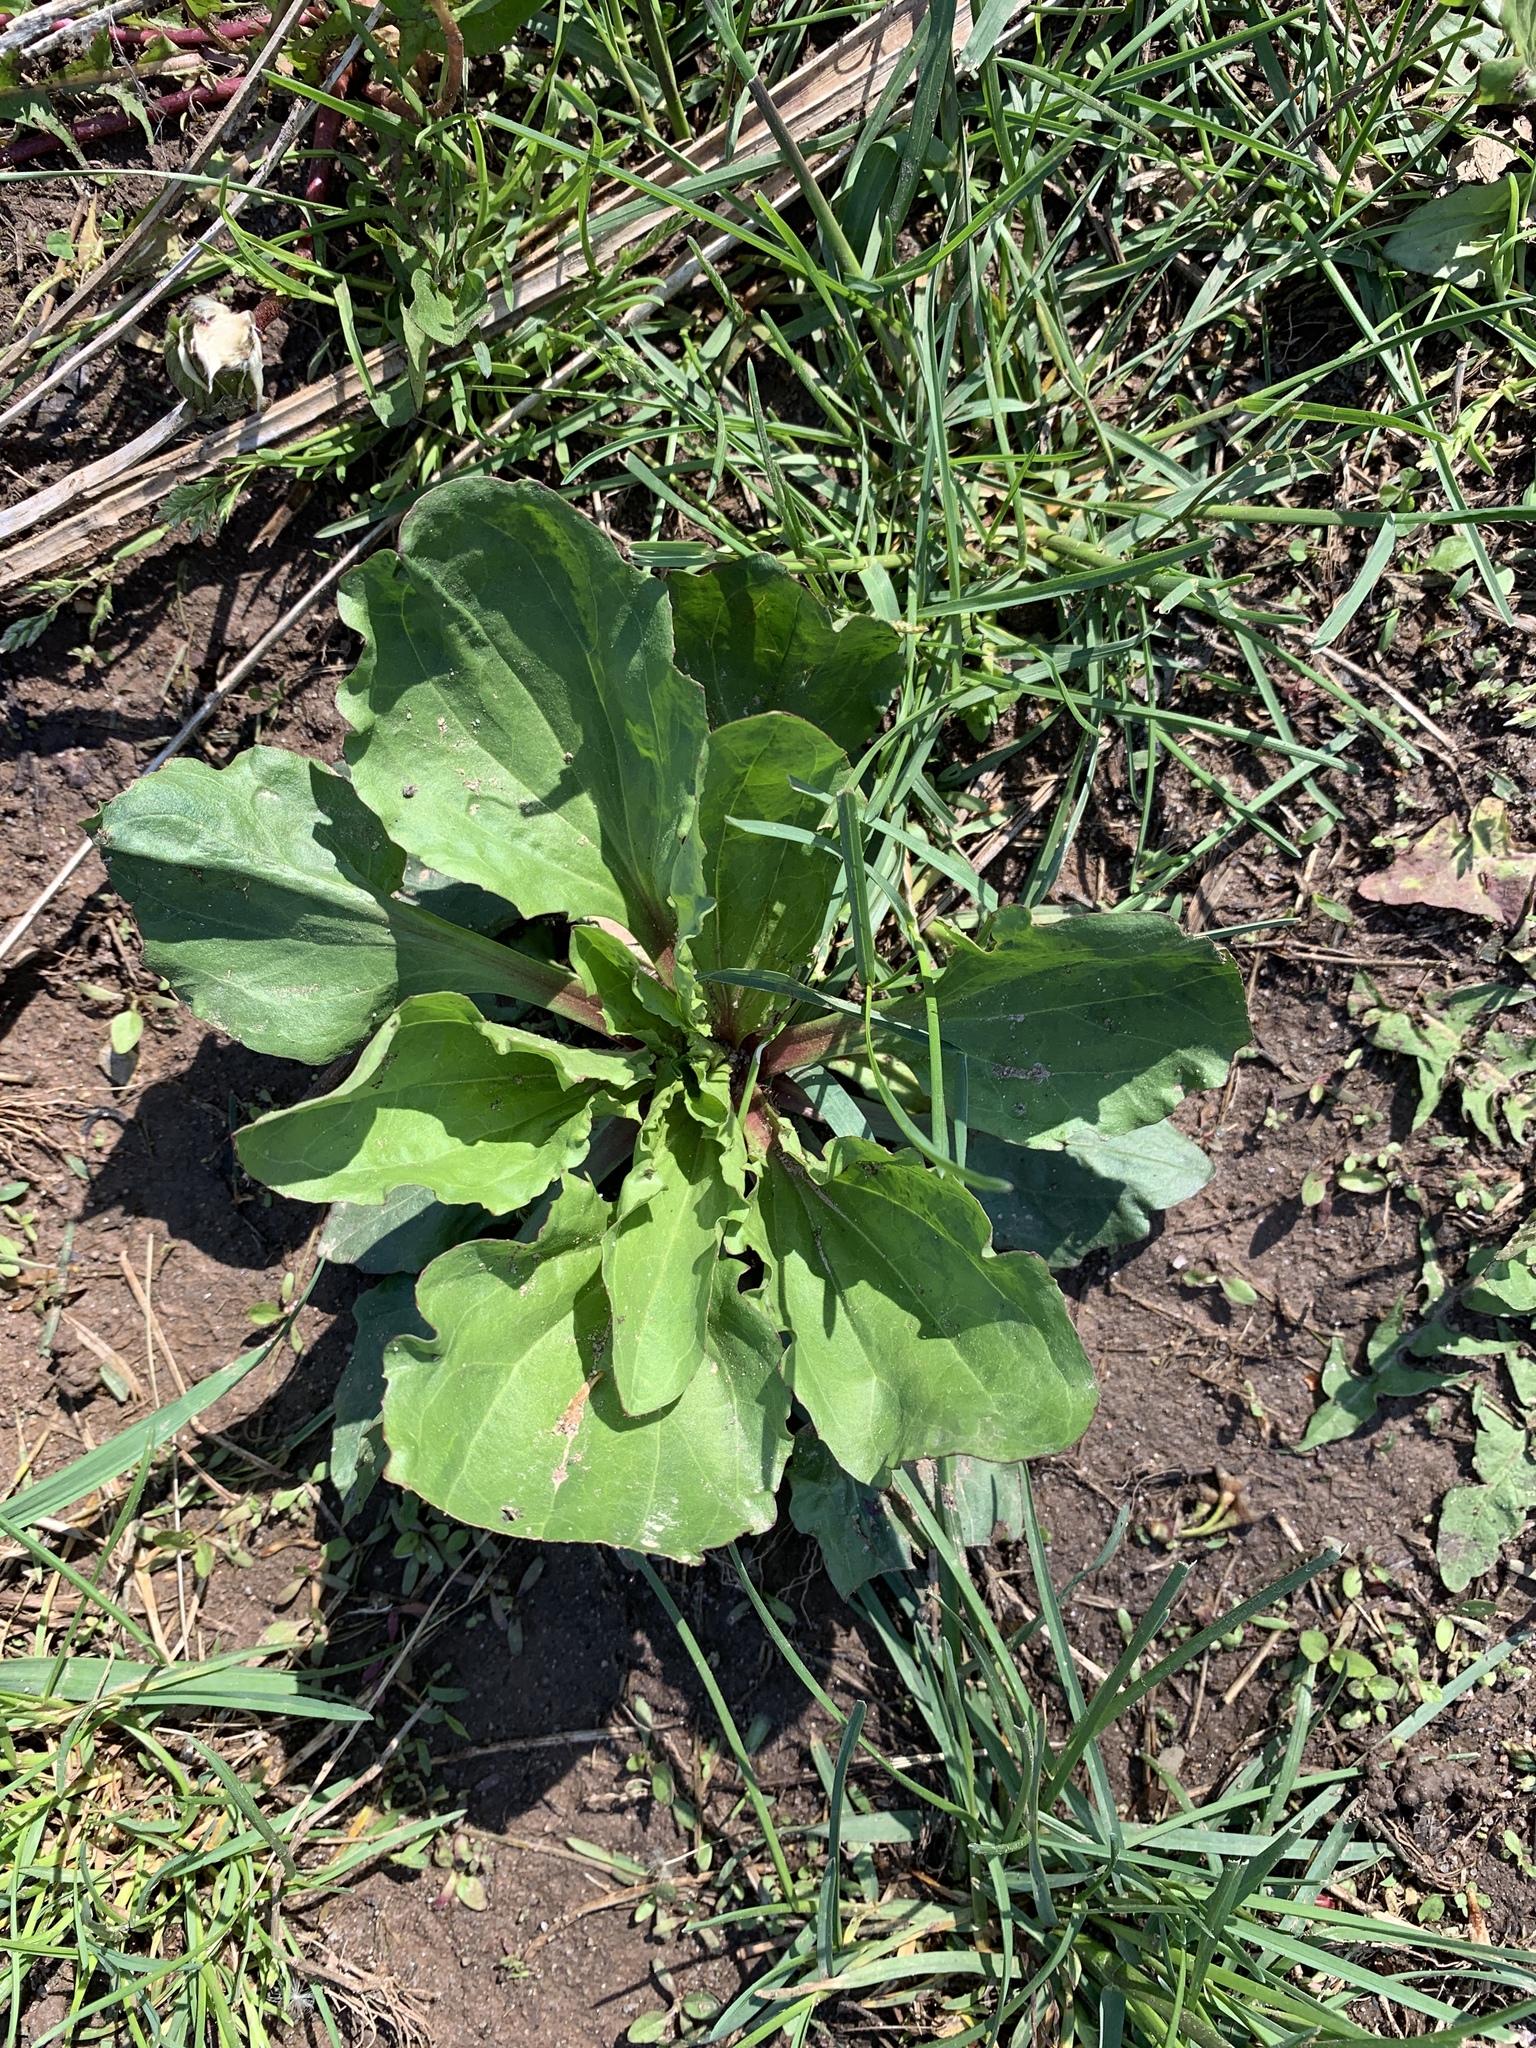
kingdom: Plantae
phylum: Tracheophyta
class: Magnoliopsida
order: Lamiales
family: Plantaginaceae
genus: Plantago
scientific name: Plantago rugelii
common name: American plantain
